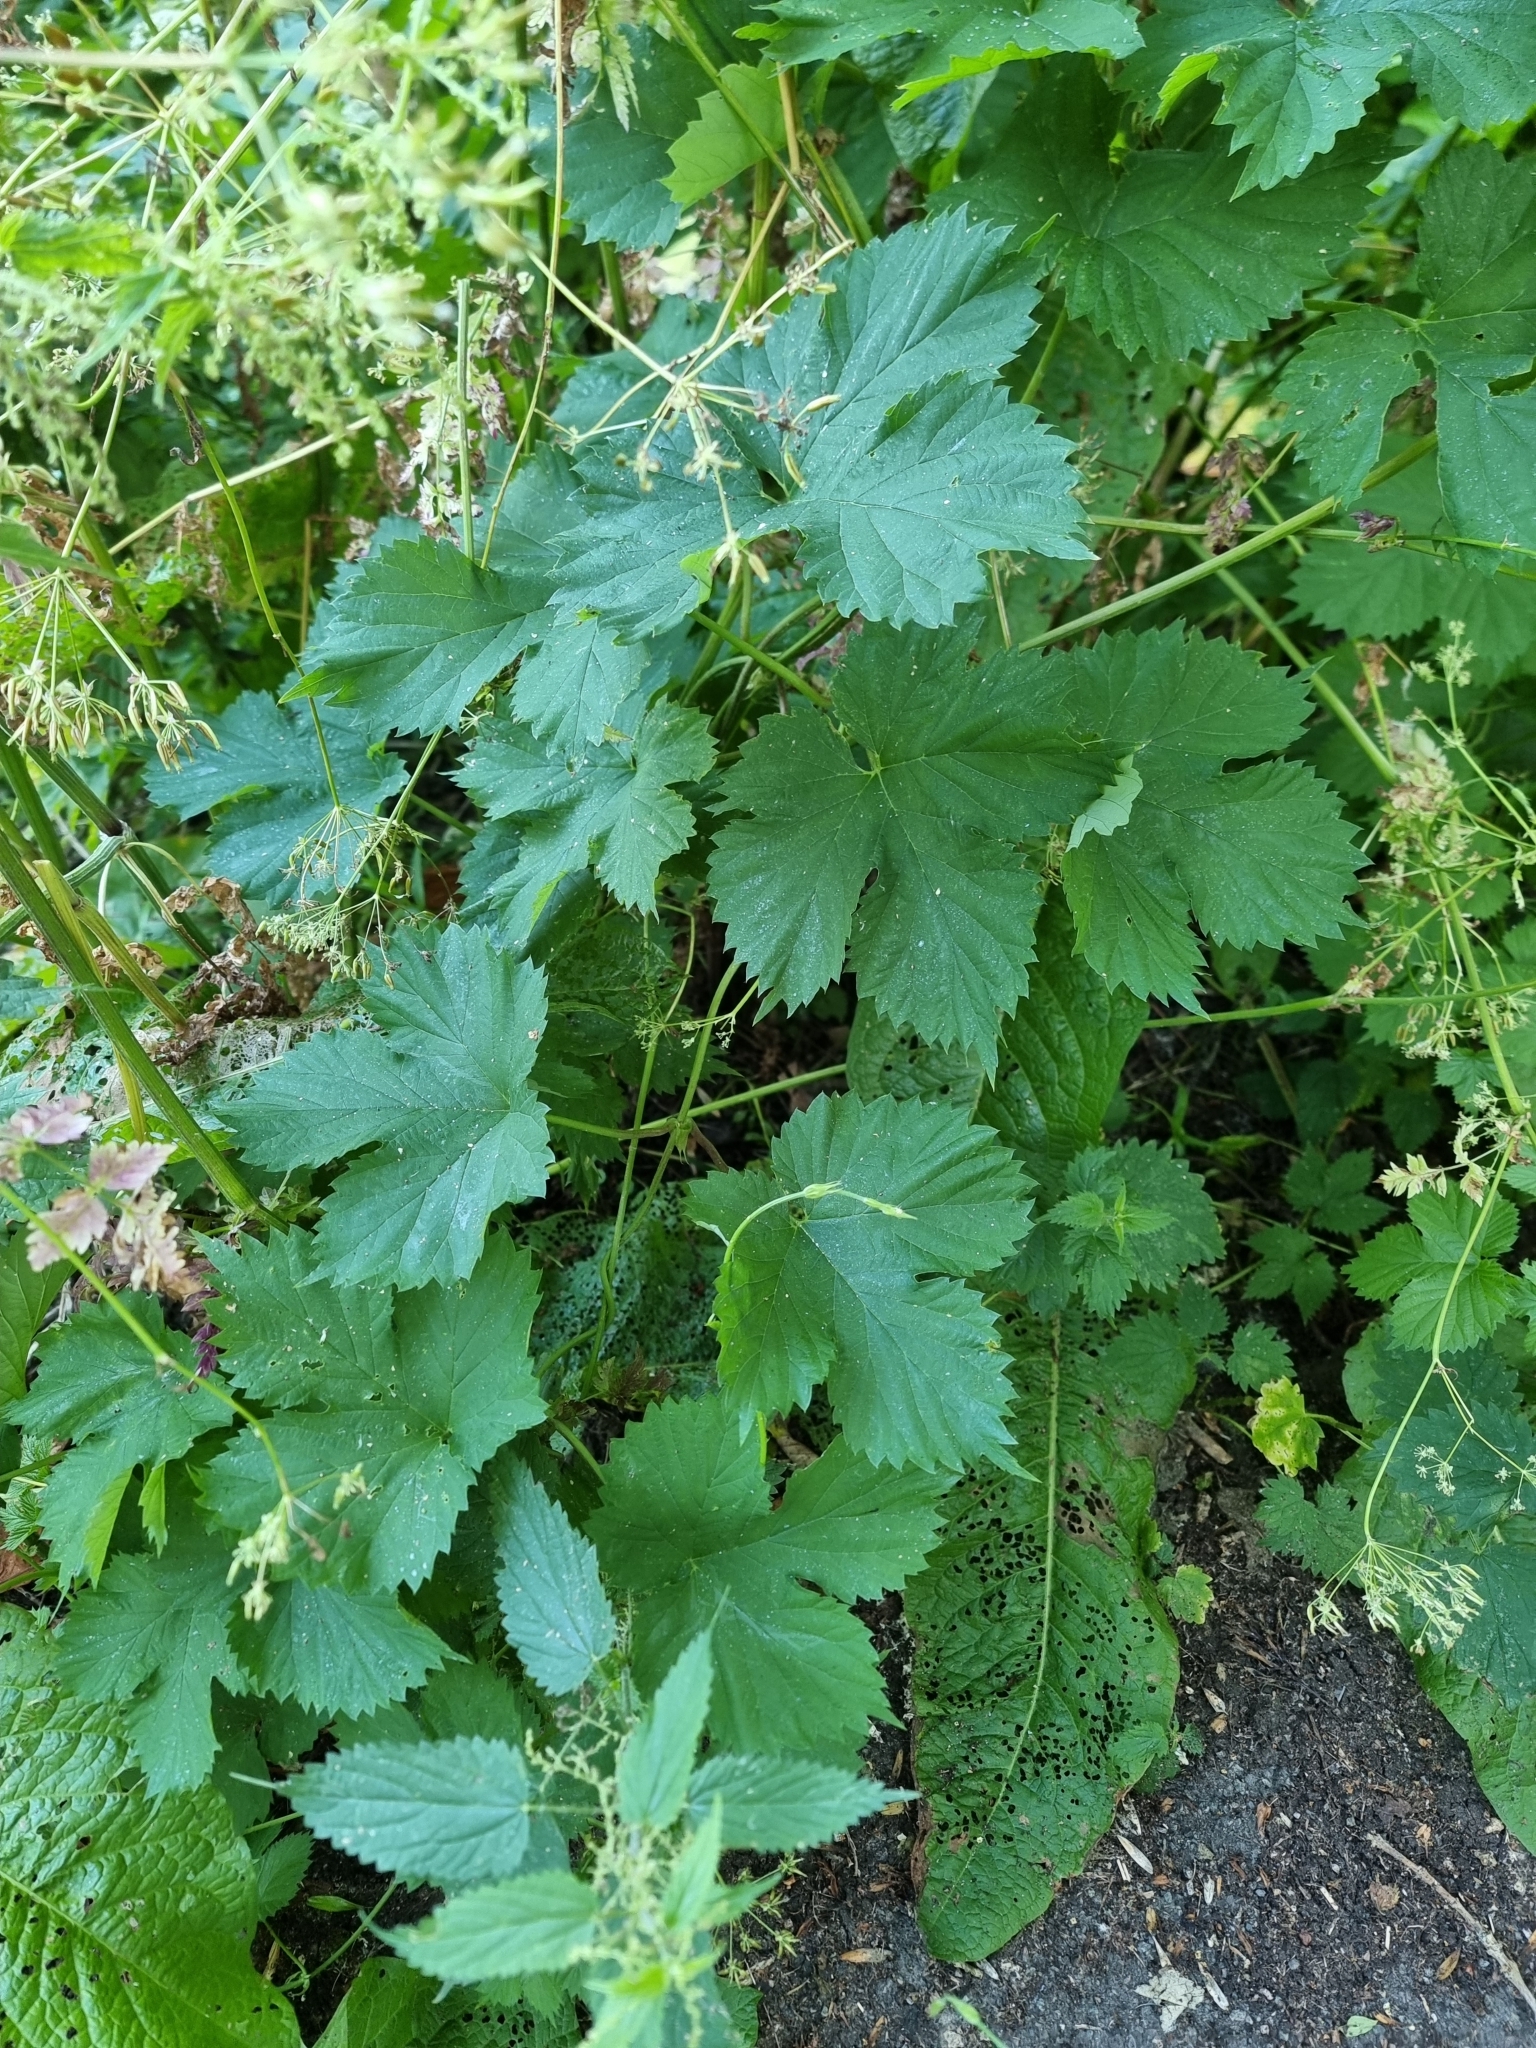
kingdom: Plantae
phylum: Tracheophyta
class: Magnoliopsida
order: Rosales
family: Cannabaceae
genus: Humulus
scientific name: Humulus lupulus
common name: Hop
